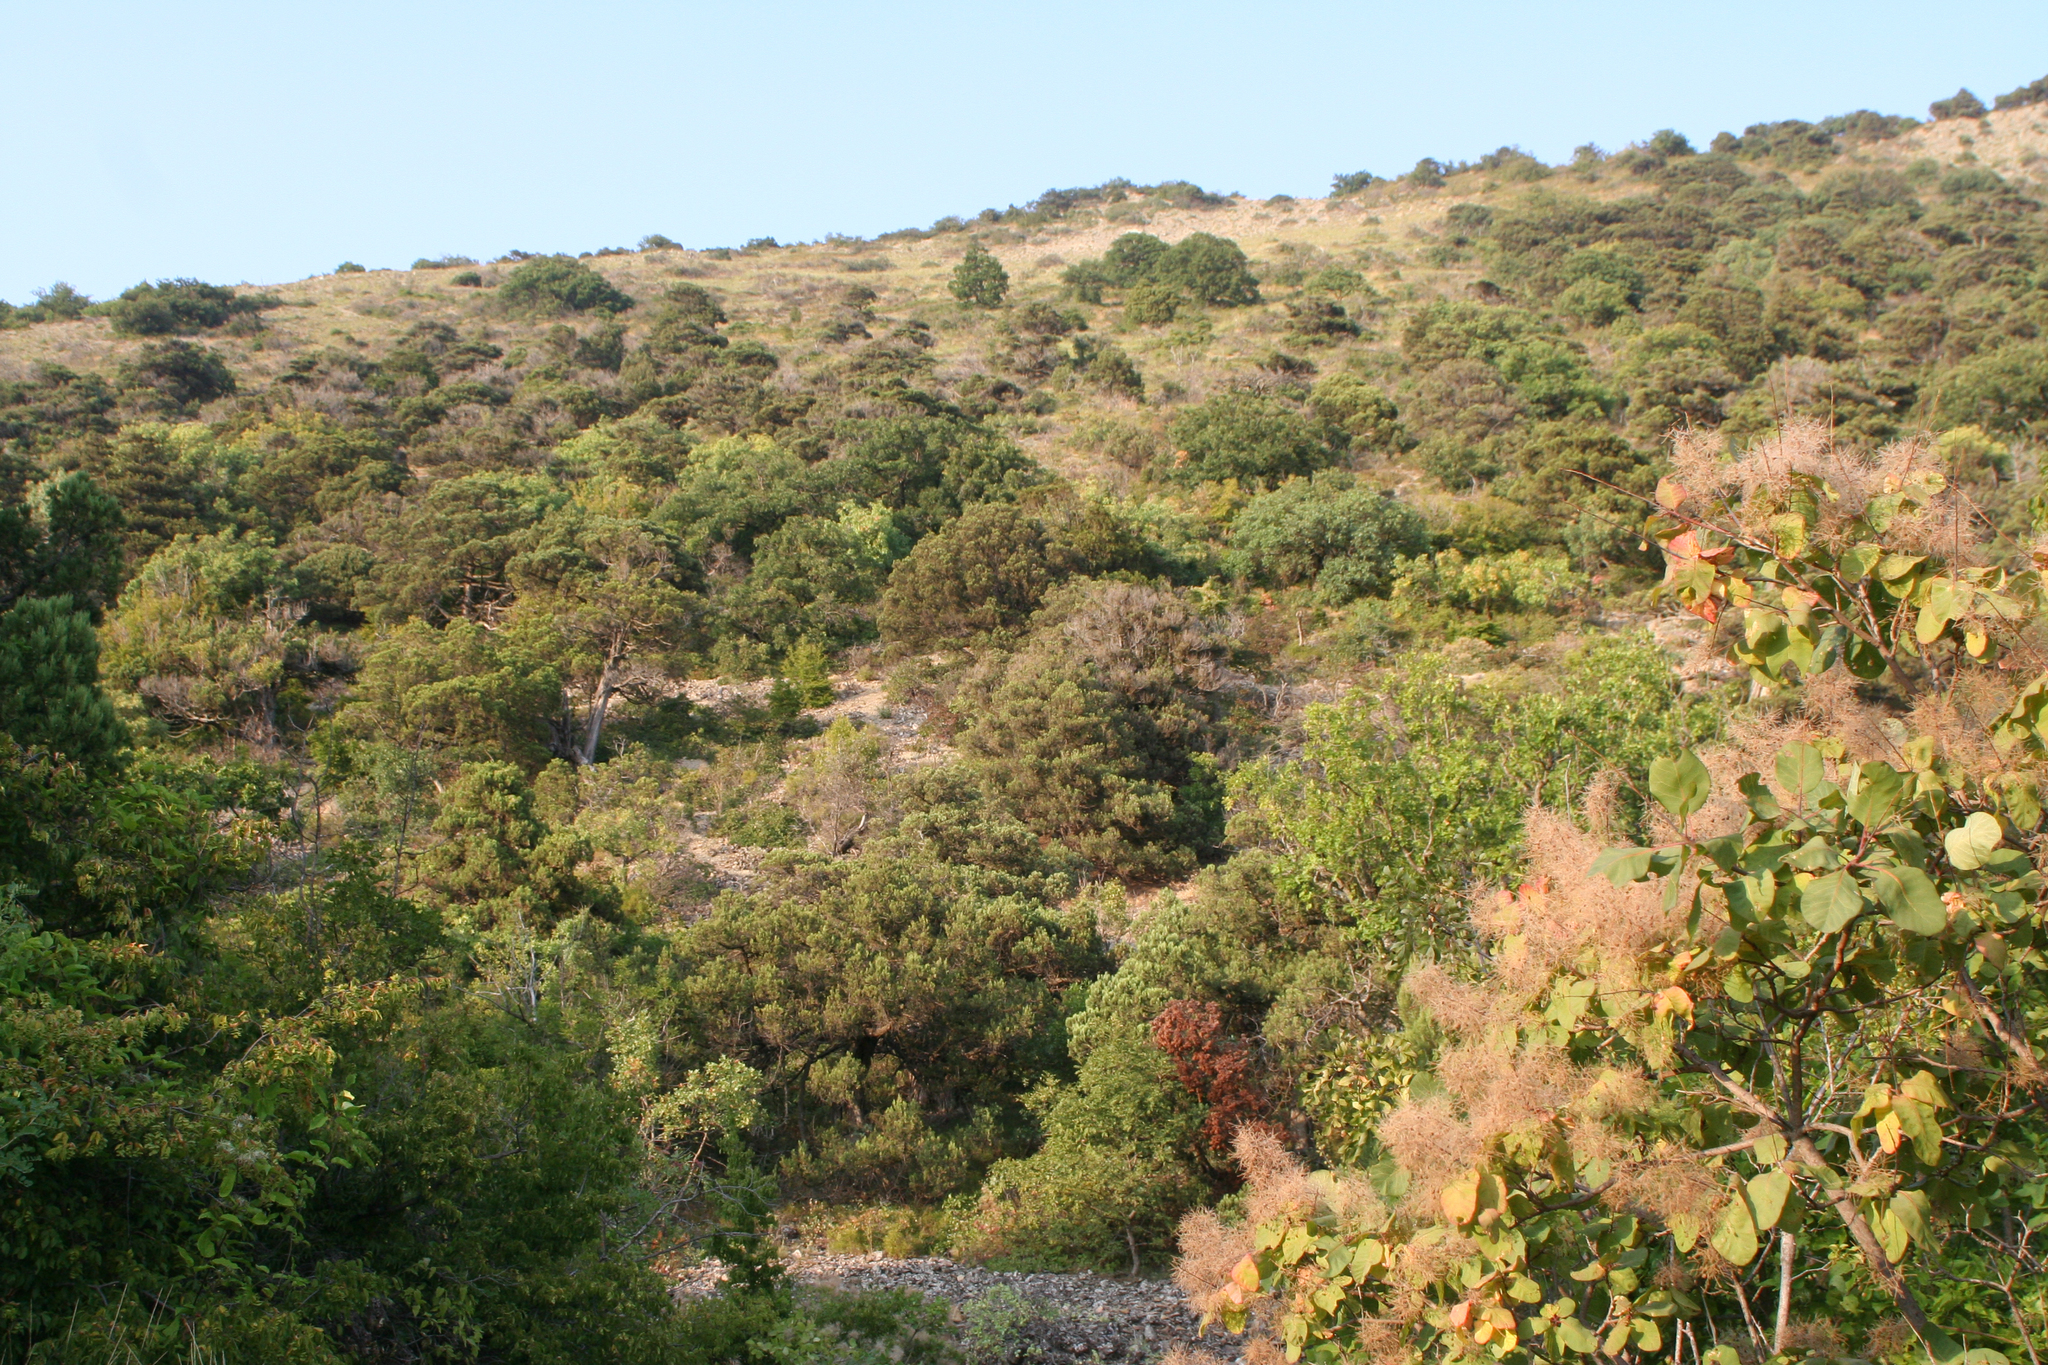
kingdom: Plantae
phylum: Tracheophyta
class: Magnoliopsida
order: Sapindales
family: Anacardiaceae
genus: Cotinus
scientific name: Cotinus coggygria
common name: Smoke-tree
